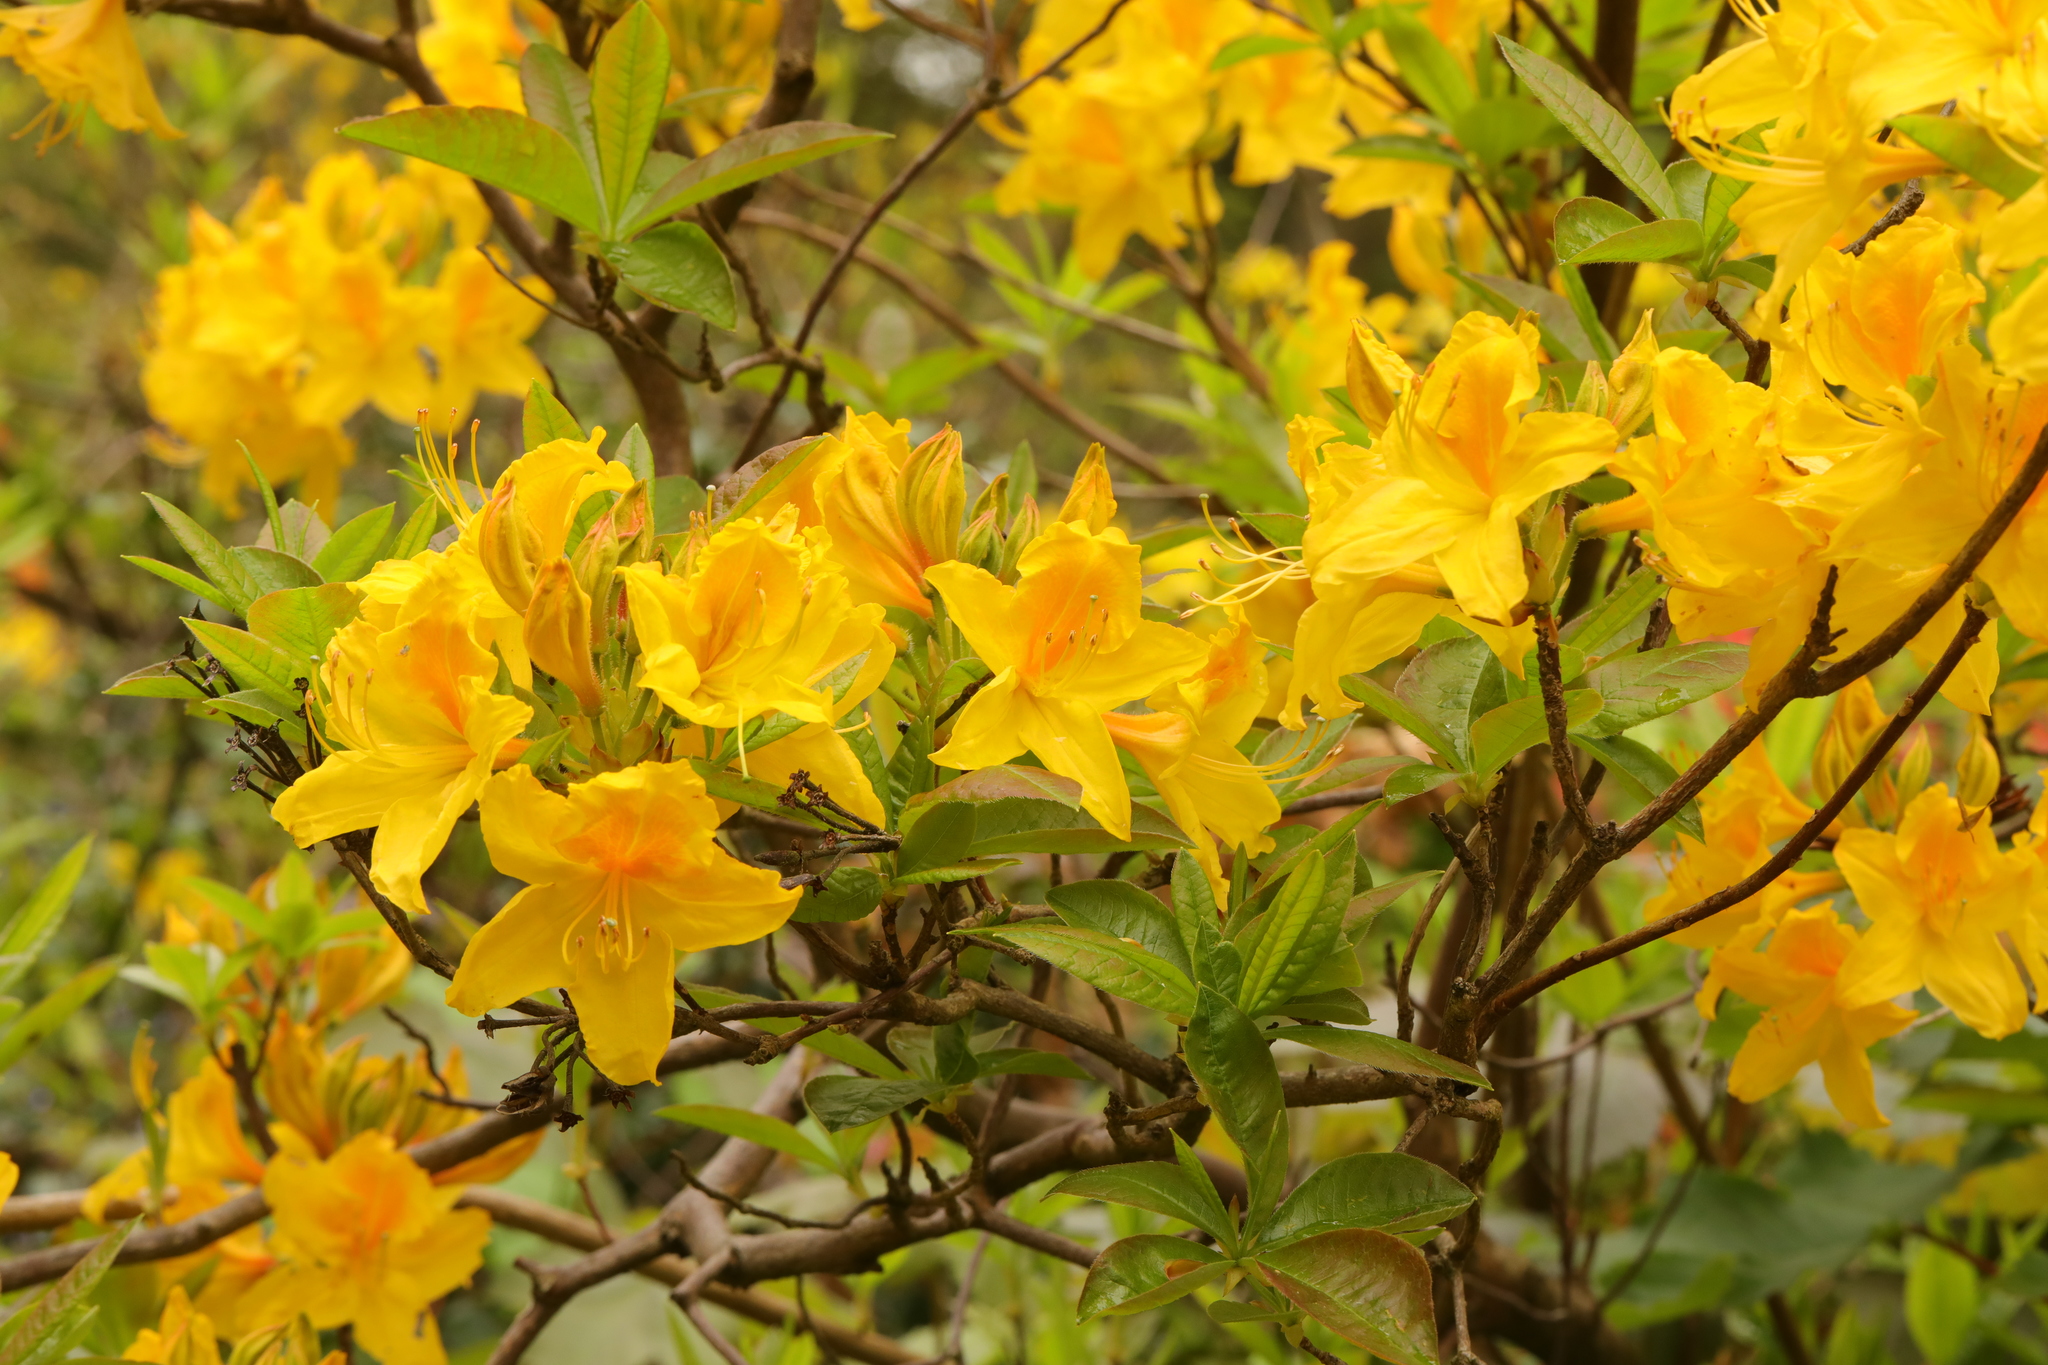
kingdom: Plantae
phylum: Tracheophyta
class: Magnoliopsida
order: Ericales
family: Ericaceae
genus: Rhododendron
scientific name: Rhododendron luteum
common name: Yellow azalea
